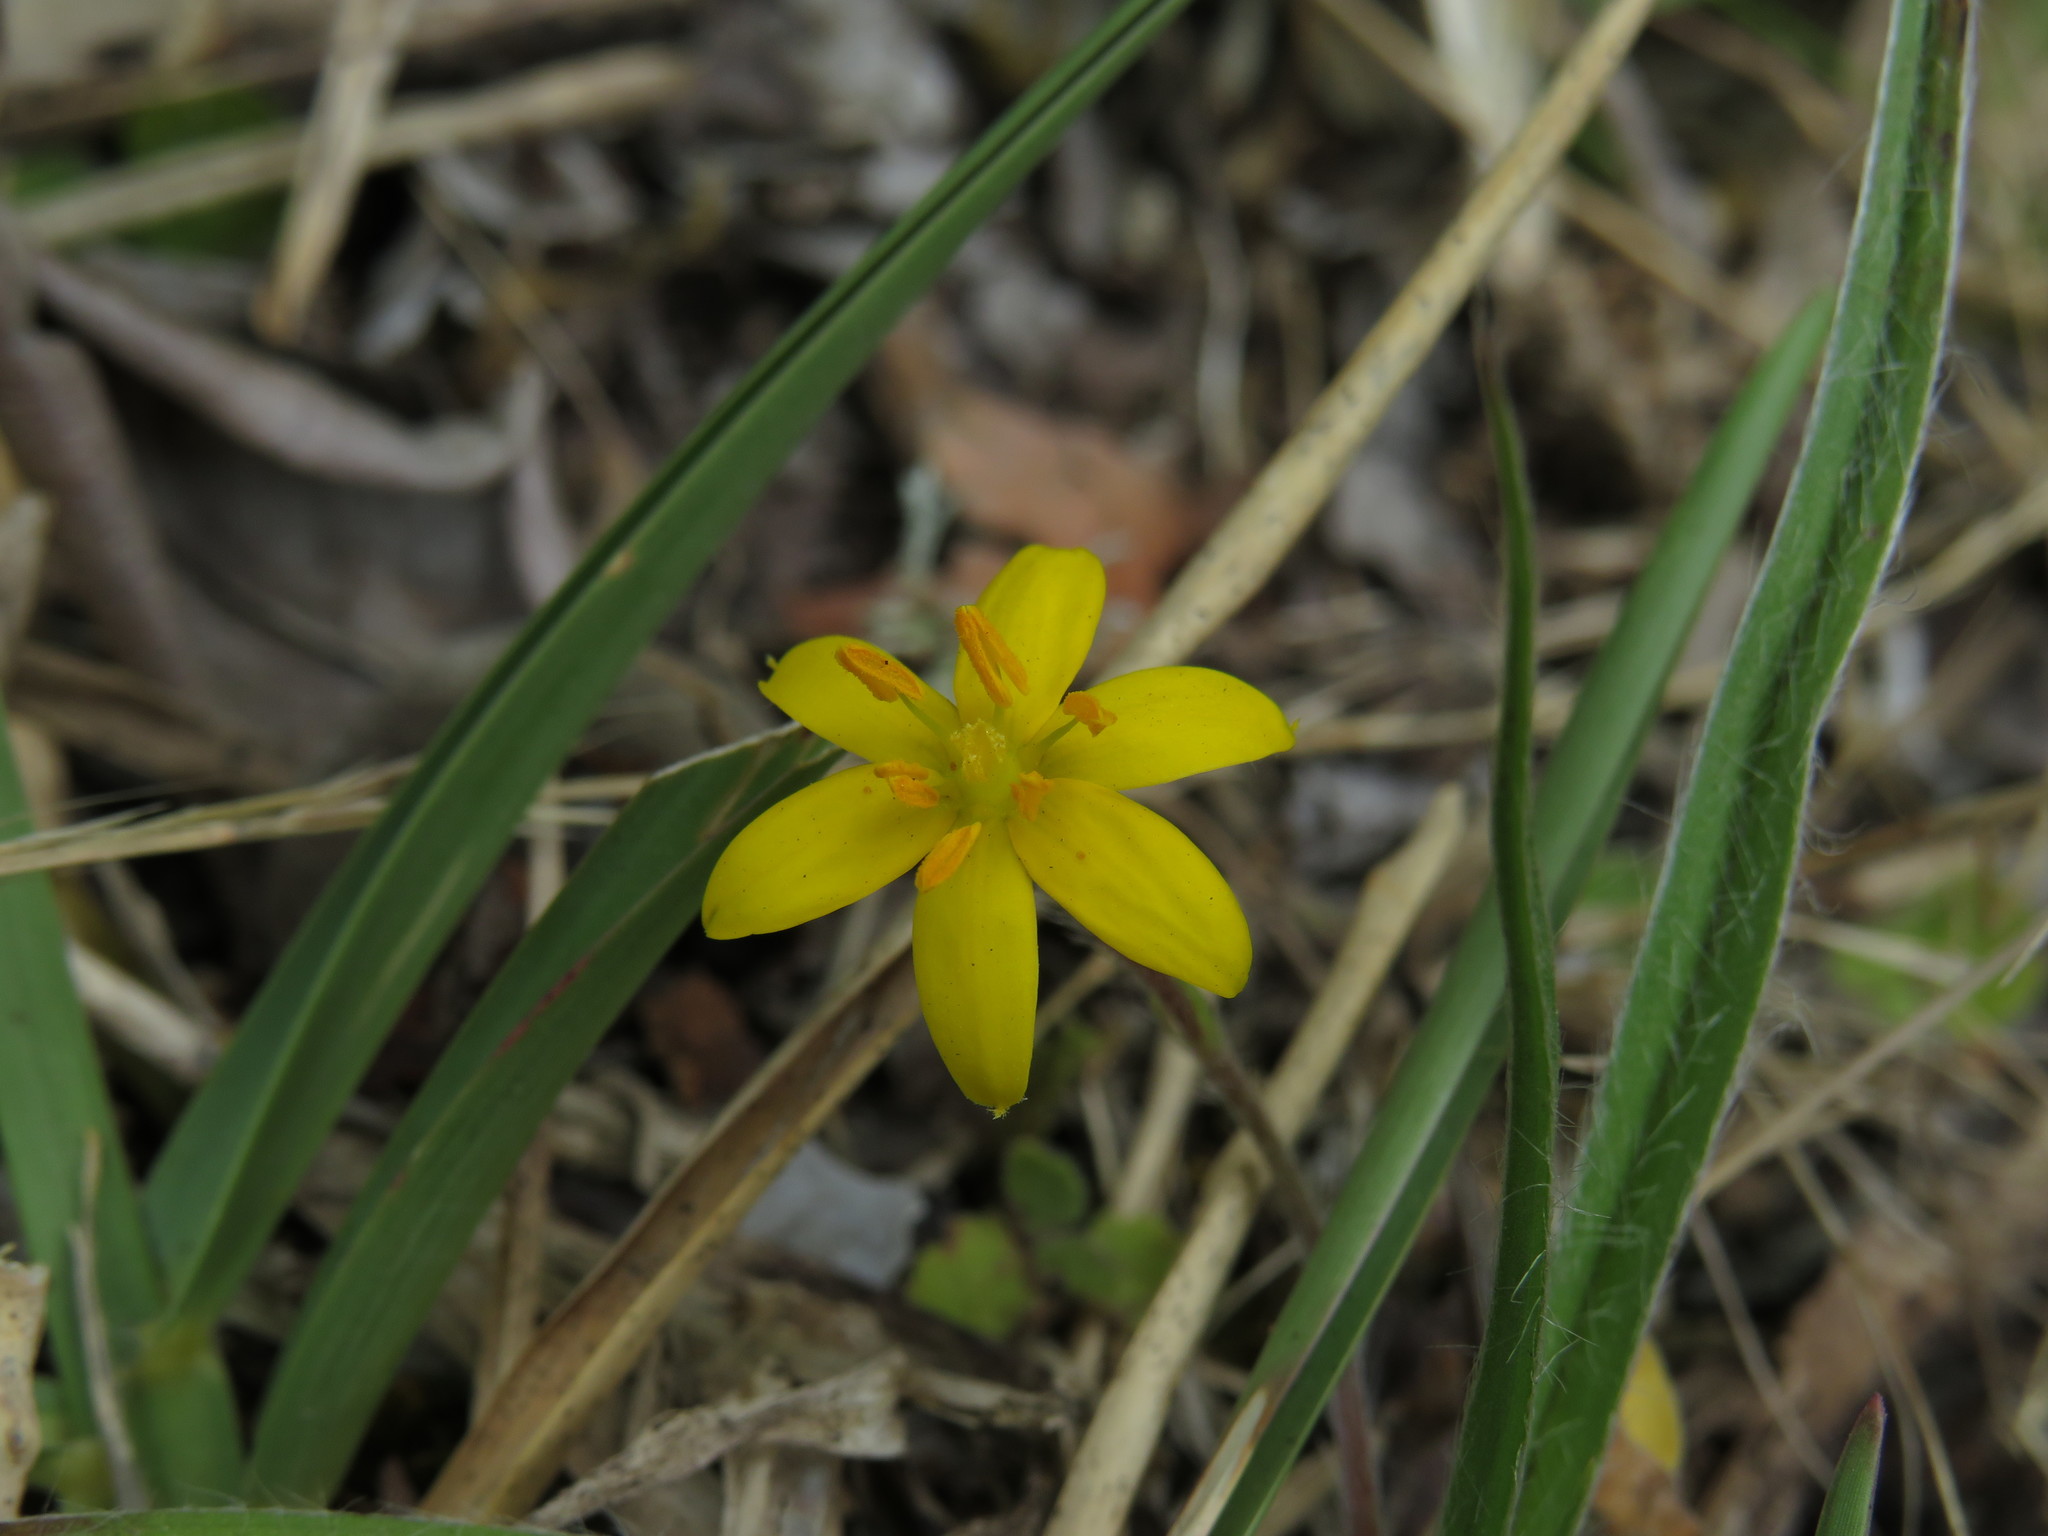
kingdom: Plantae
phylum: Tracheophyta
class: Liliopsida
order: Asparagales
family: Hypoxidaceae
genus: Hypoxis
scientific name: Hypoxis villosa
